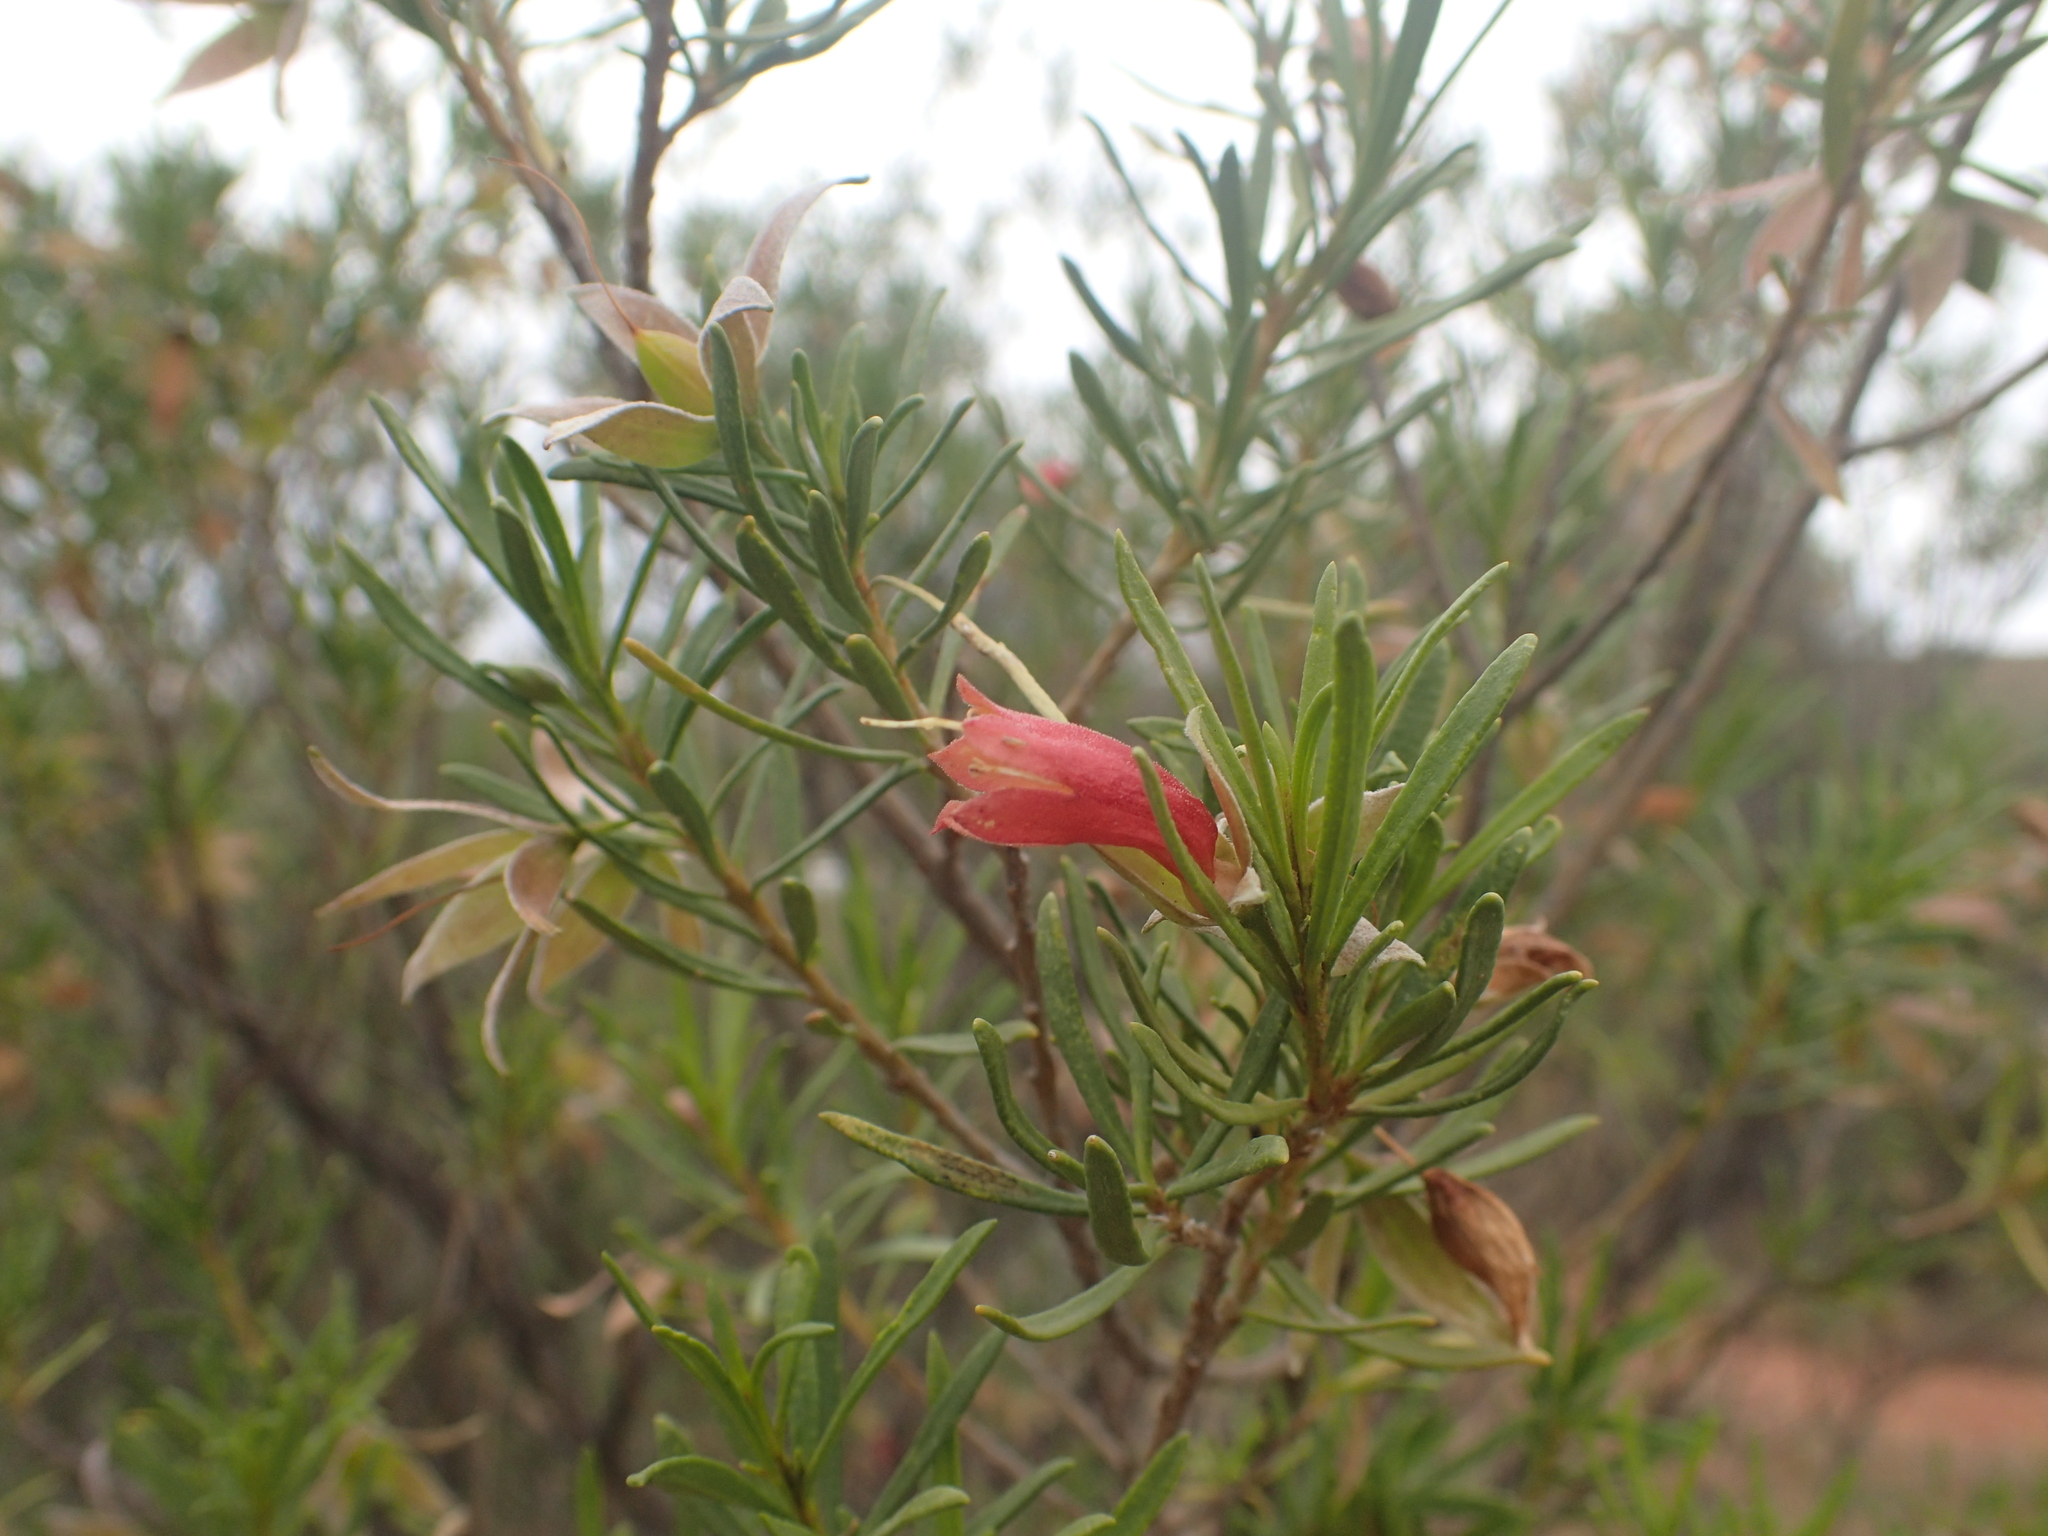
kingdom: Plantae
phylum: Tracheophyta
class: Magnoliopsida
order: Lamiales
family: Scrophulariaceae
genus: Eremophila
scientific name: Eremophila latrobei
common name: Crimson turkeybush
